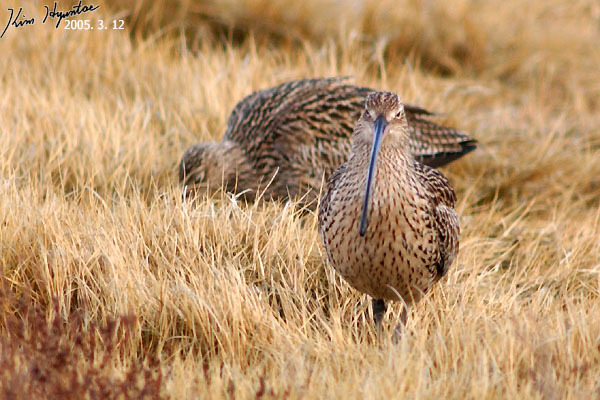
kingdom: Animalia
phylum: Chordata
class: Aves
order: Charadriiformes
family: Scolopacidae
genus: Numenius
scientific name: Numenius madagascariensis
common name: Far eastern curlew
